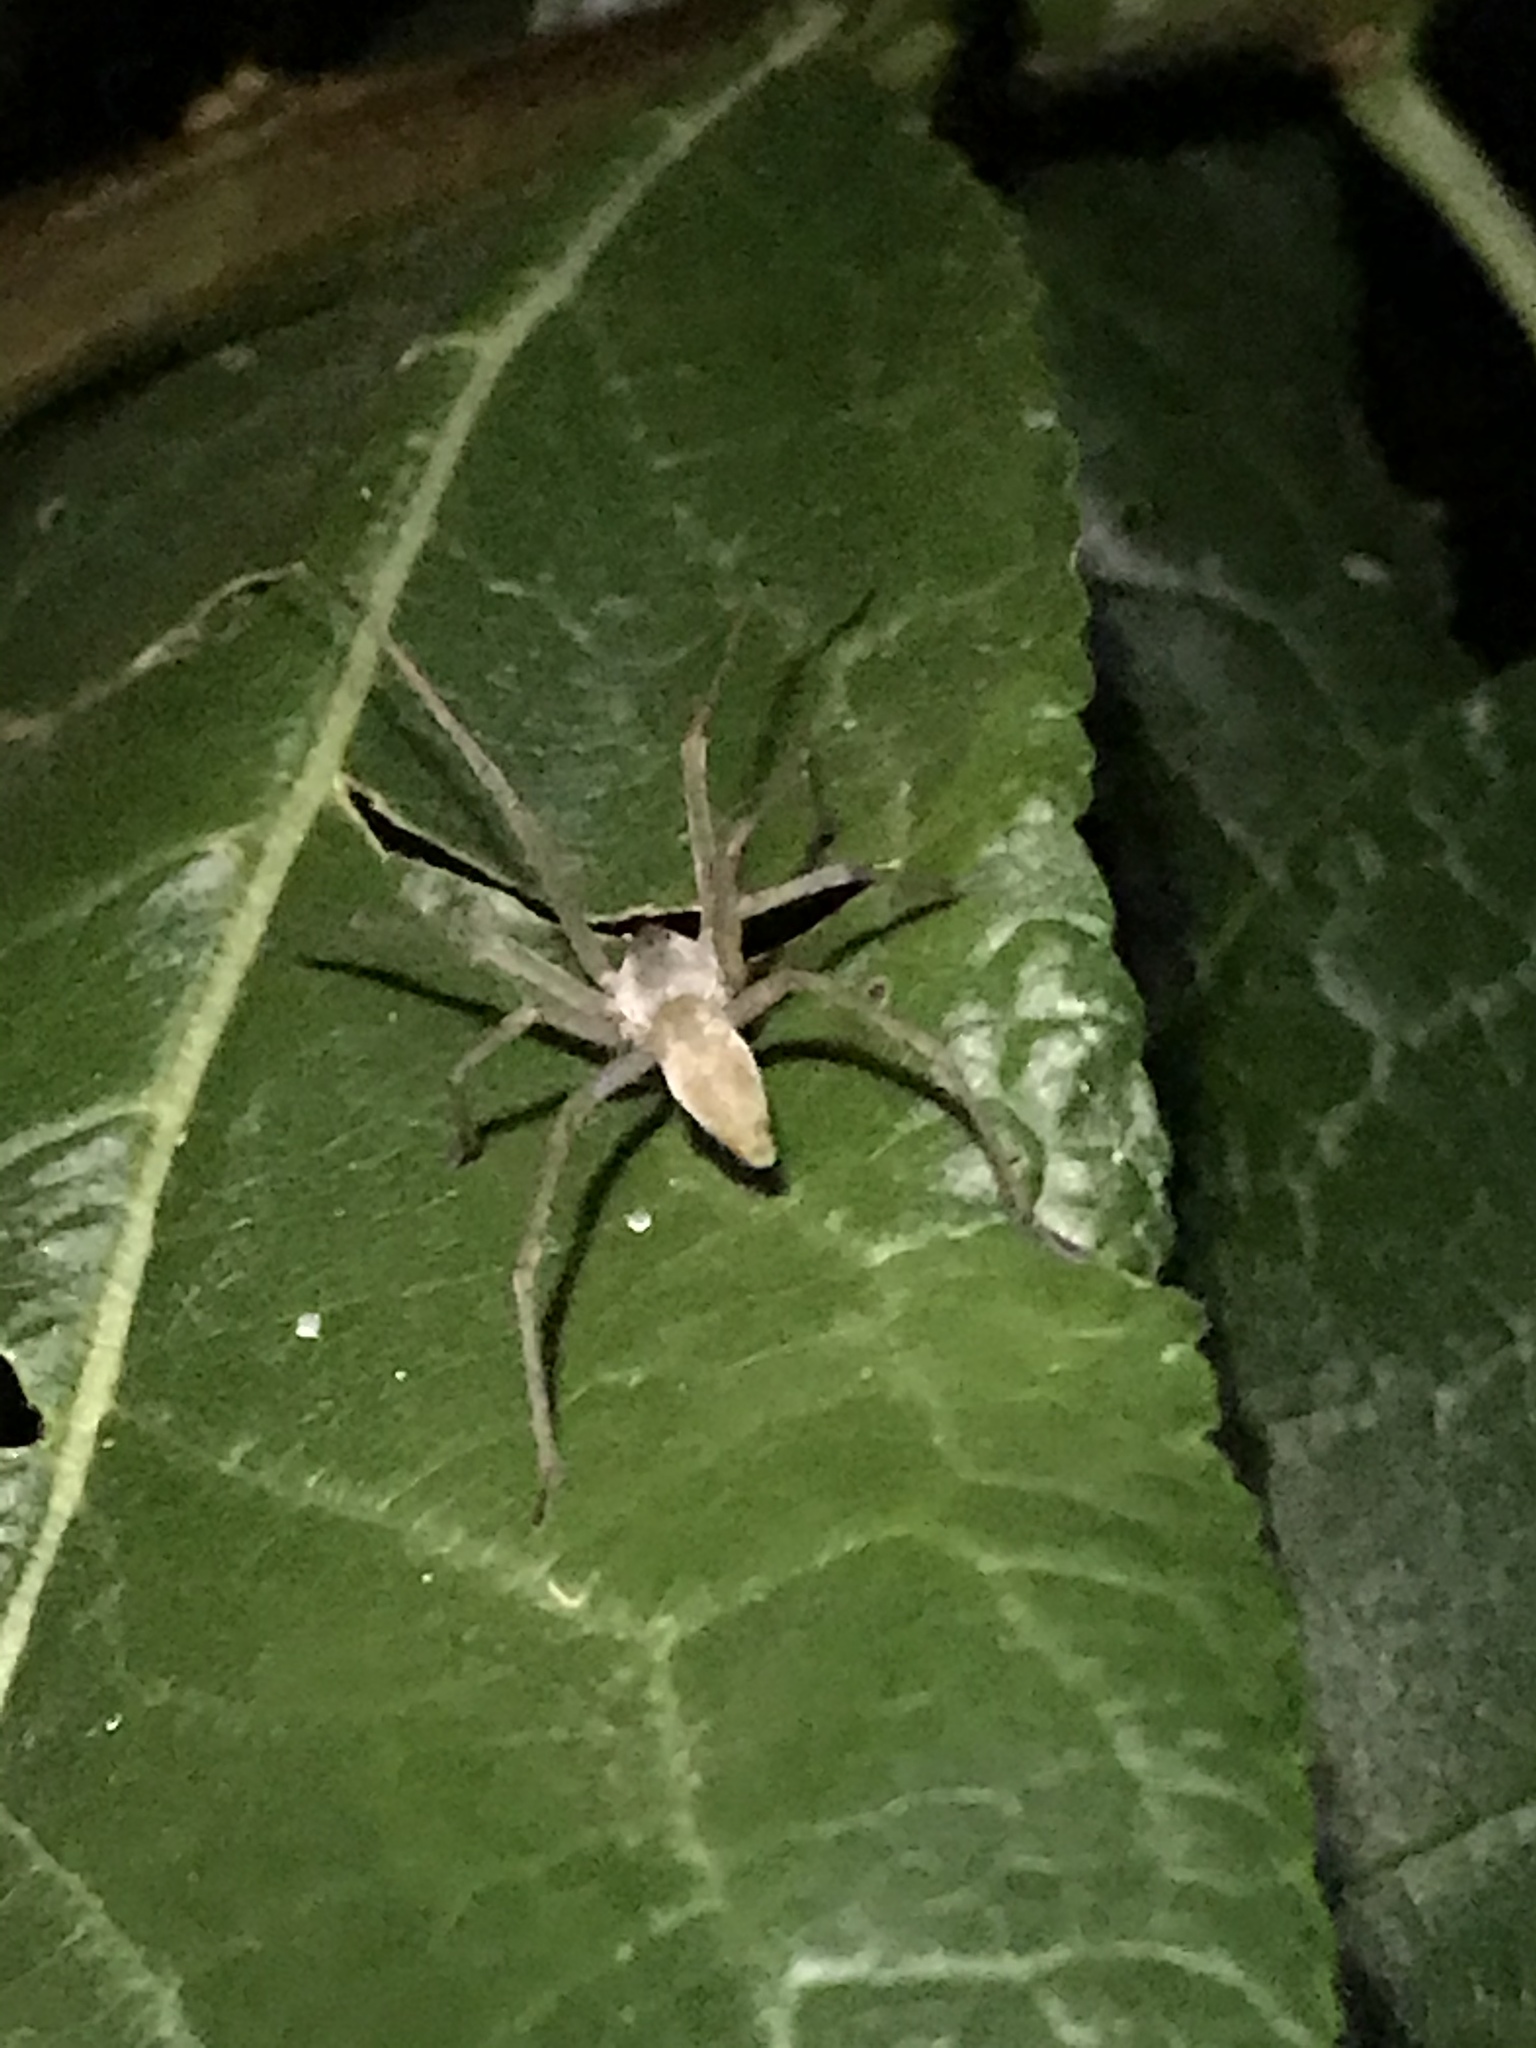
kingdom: Animalia
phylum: Arthropoda
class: Arachnida
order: Araneae
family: Cheiracanthiidae
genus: Cheiracanthium
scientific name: Cheiracanthium
